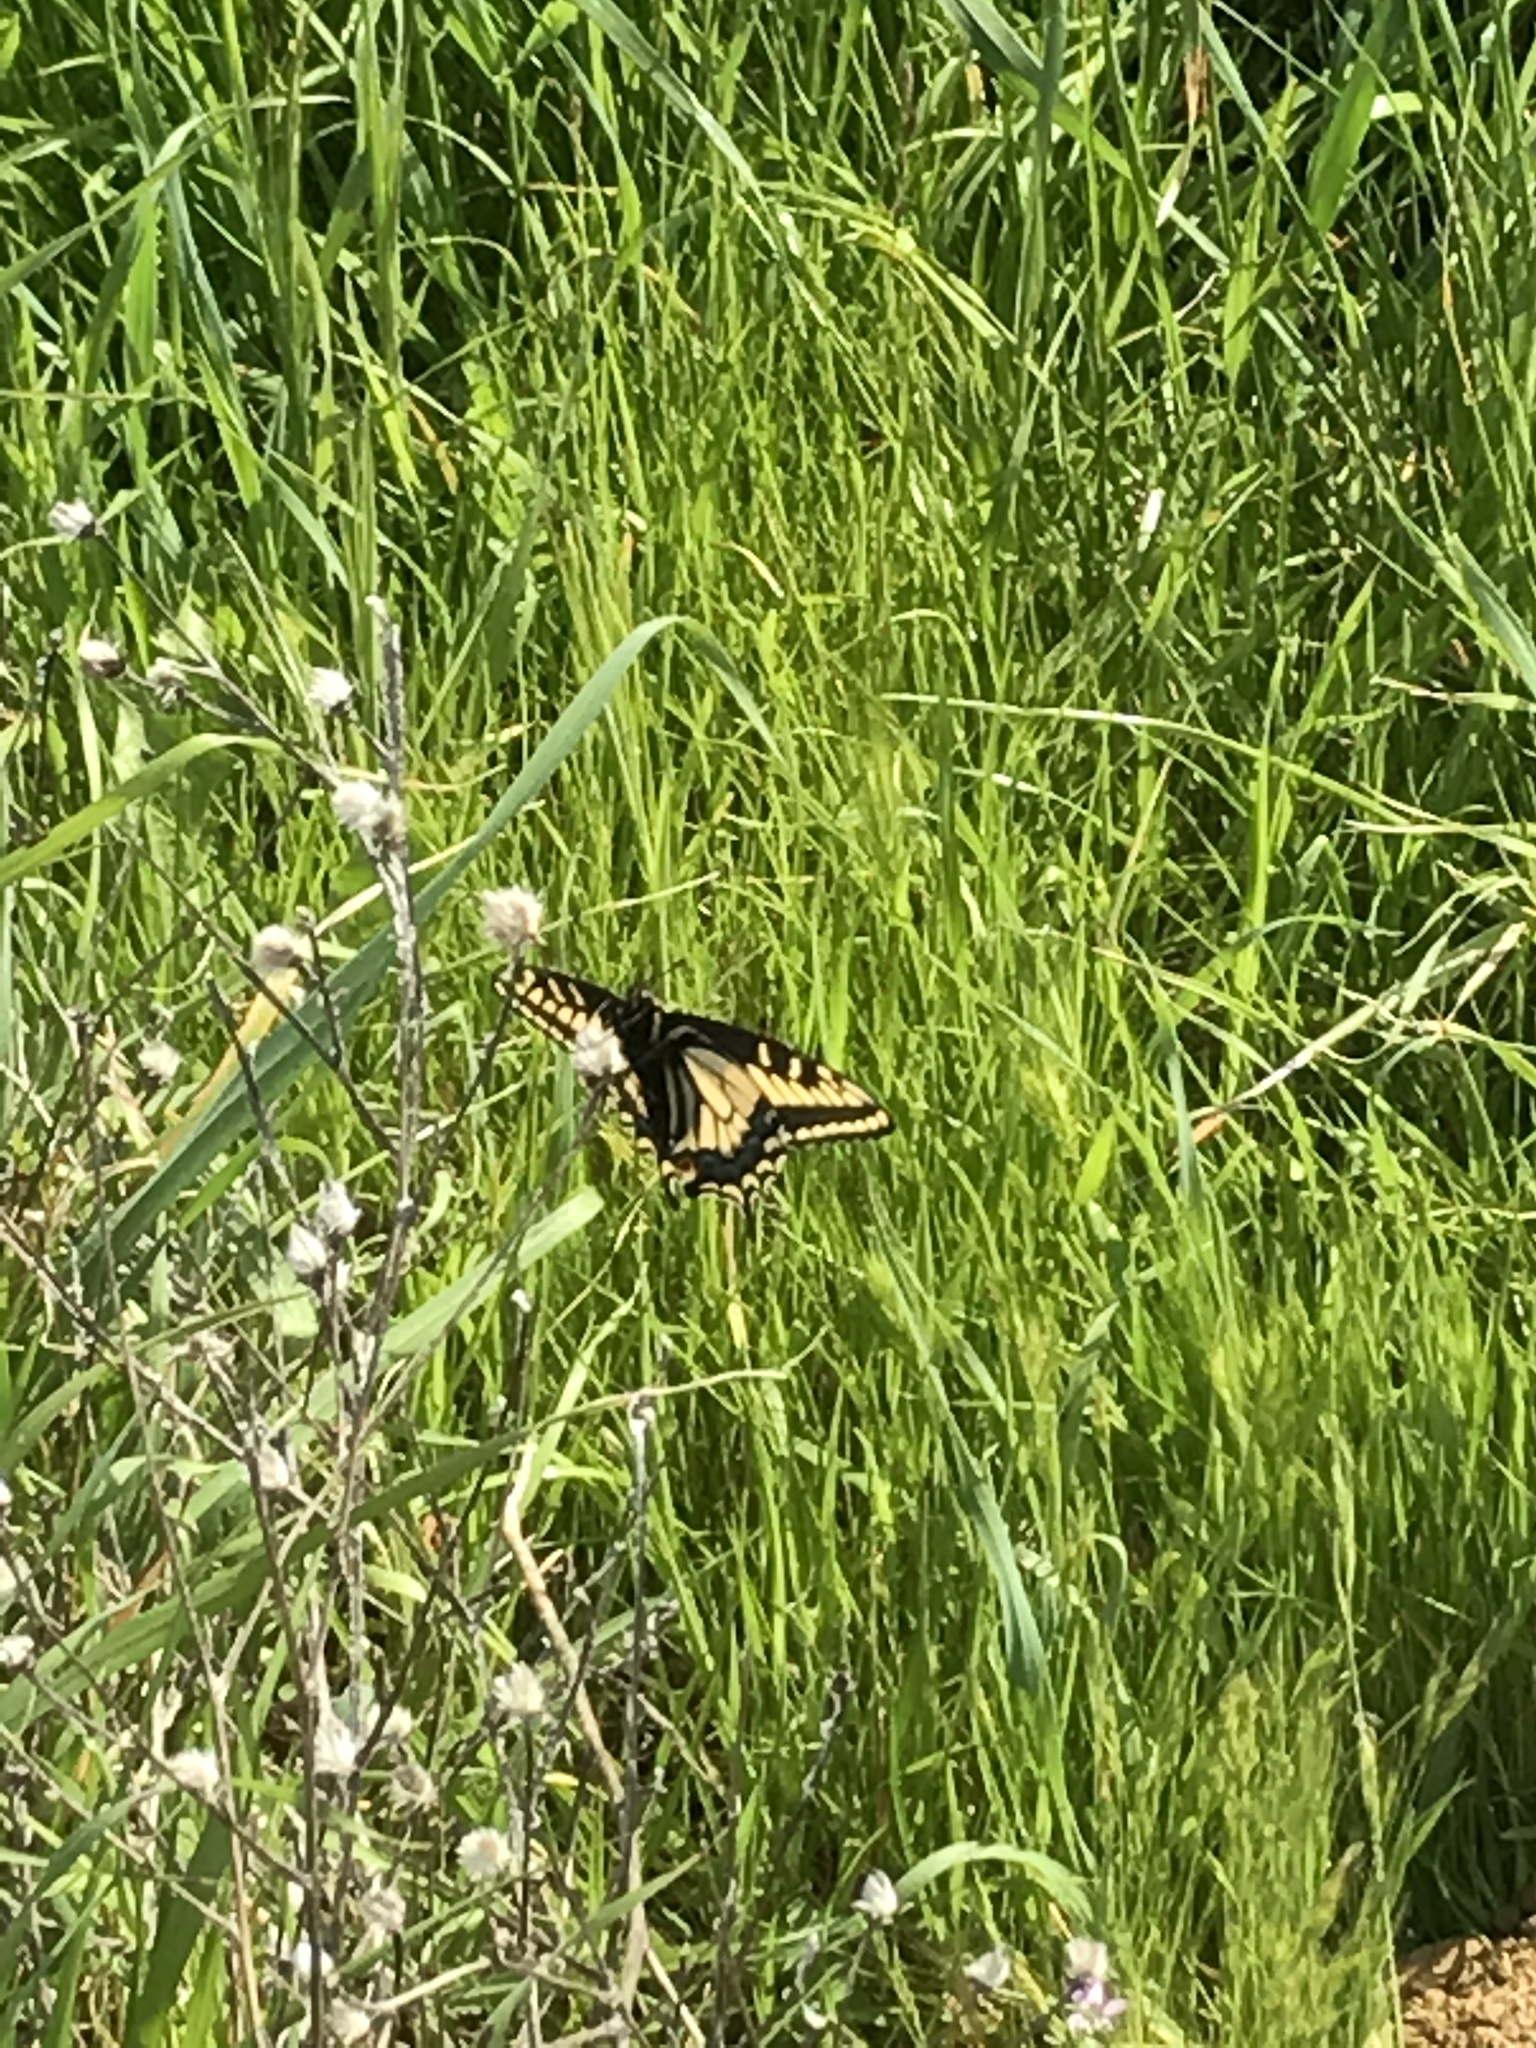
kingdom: Animalia
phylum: Arthropoda
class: Insecta
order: Lepidoptera
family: Papilionidae
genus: Papilio
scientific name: Papilio zelicaon
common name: Anise swallowtail
